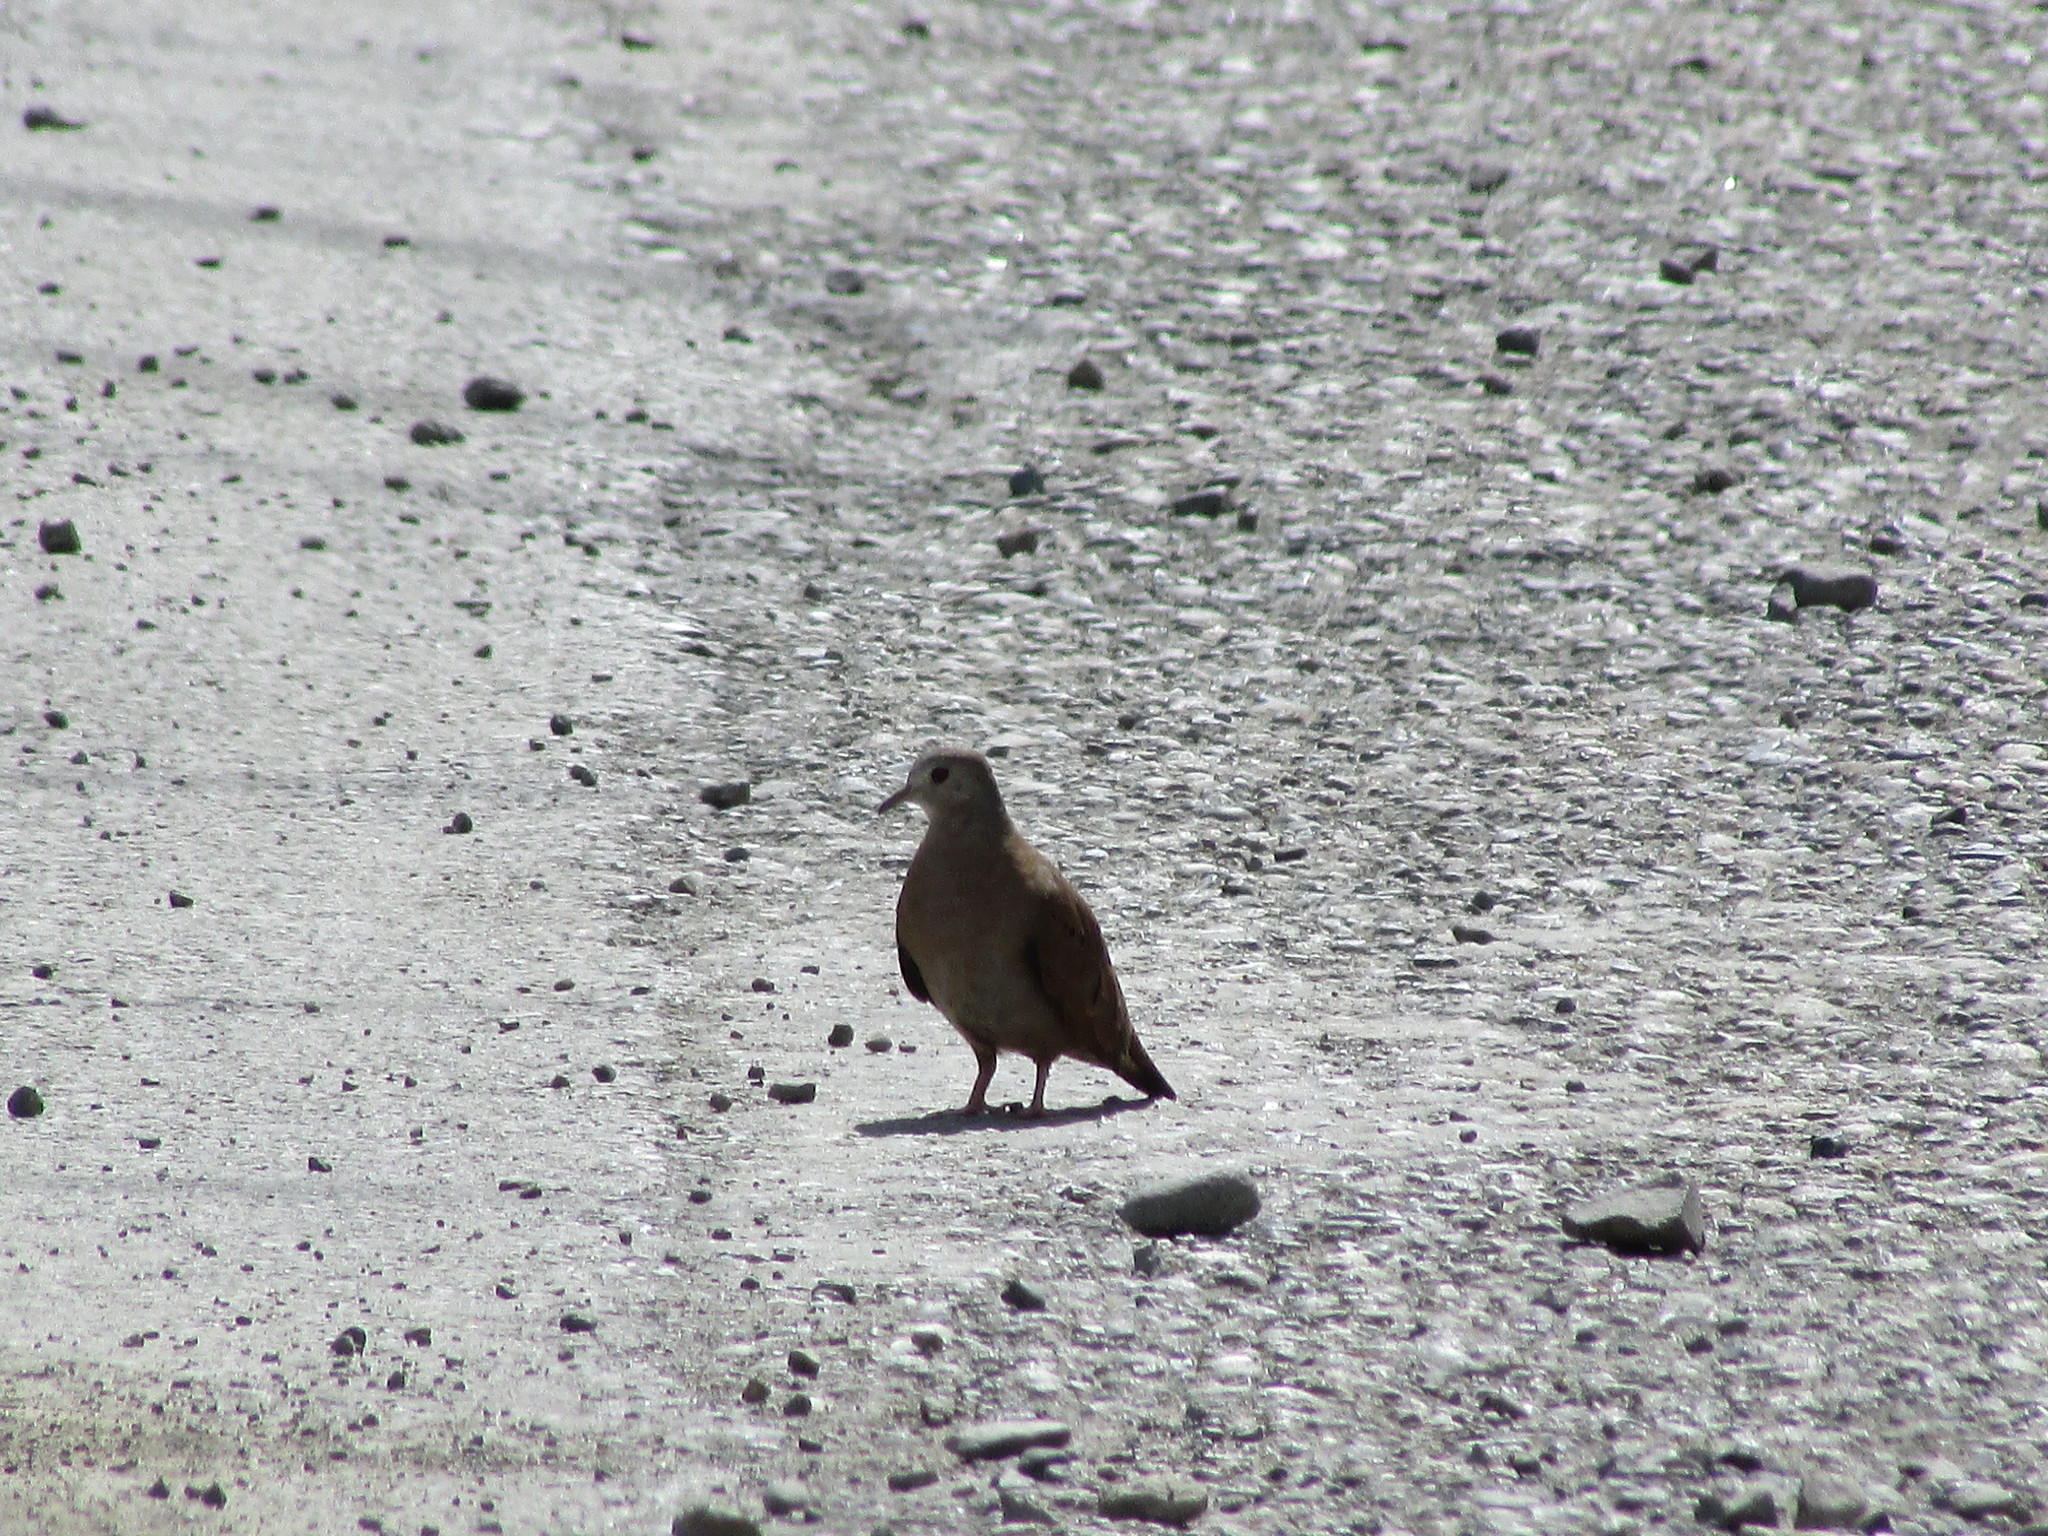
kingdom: Animalia
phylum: Chordata
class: Aves
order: Columbiformes
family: Columbidae
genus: Leptotila
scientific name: Leptotila verreauxi
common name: White-tipped dove
